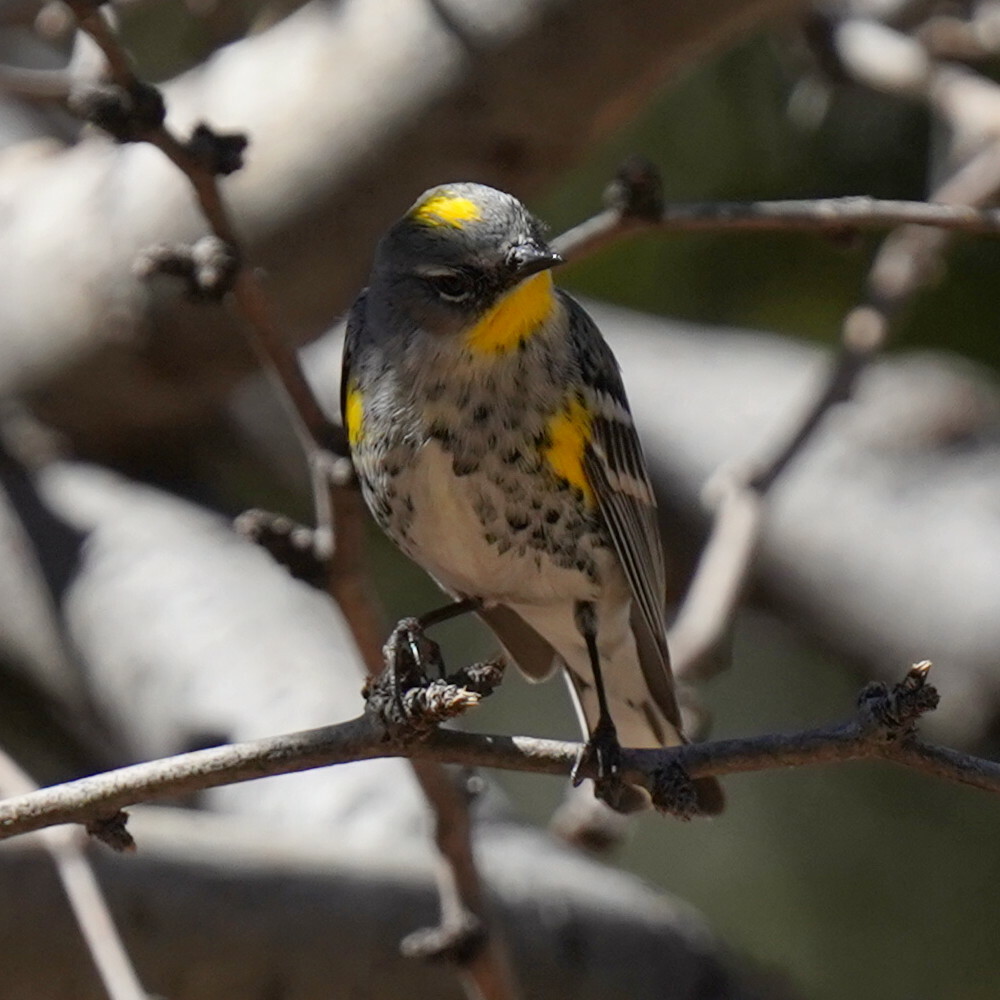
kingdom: Animalia
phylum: Chordata
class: Aves
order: Passeriformes
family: Parulidae
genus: Setophaga
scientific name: Setophaga auduboni
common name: Audubon's warbler
